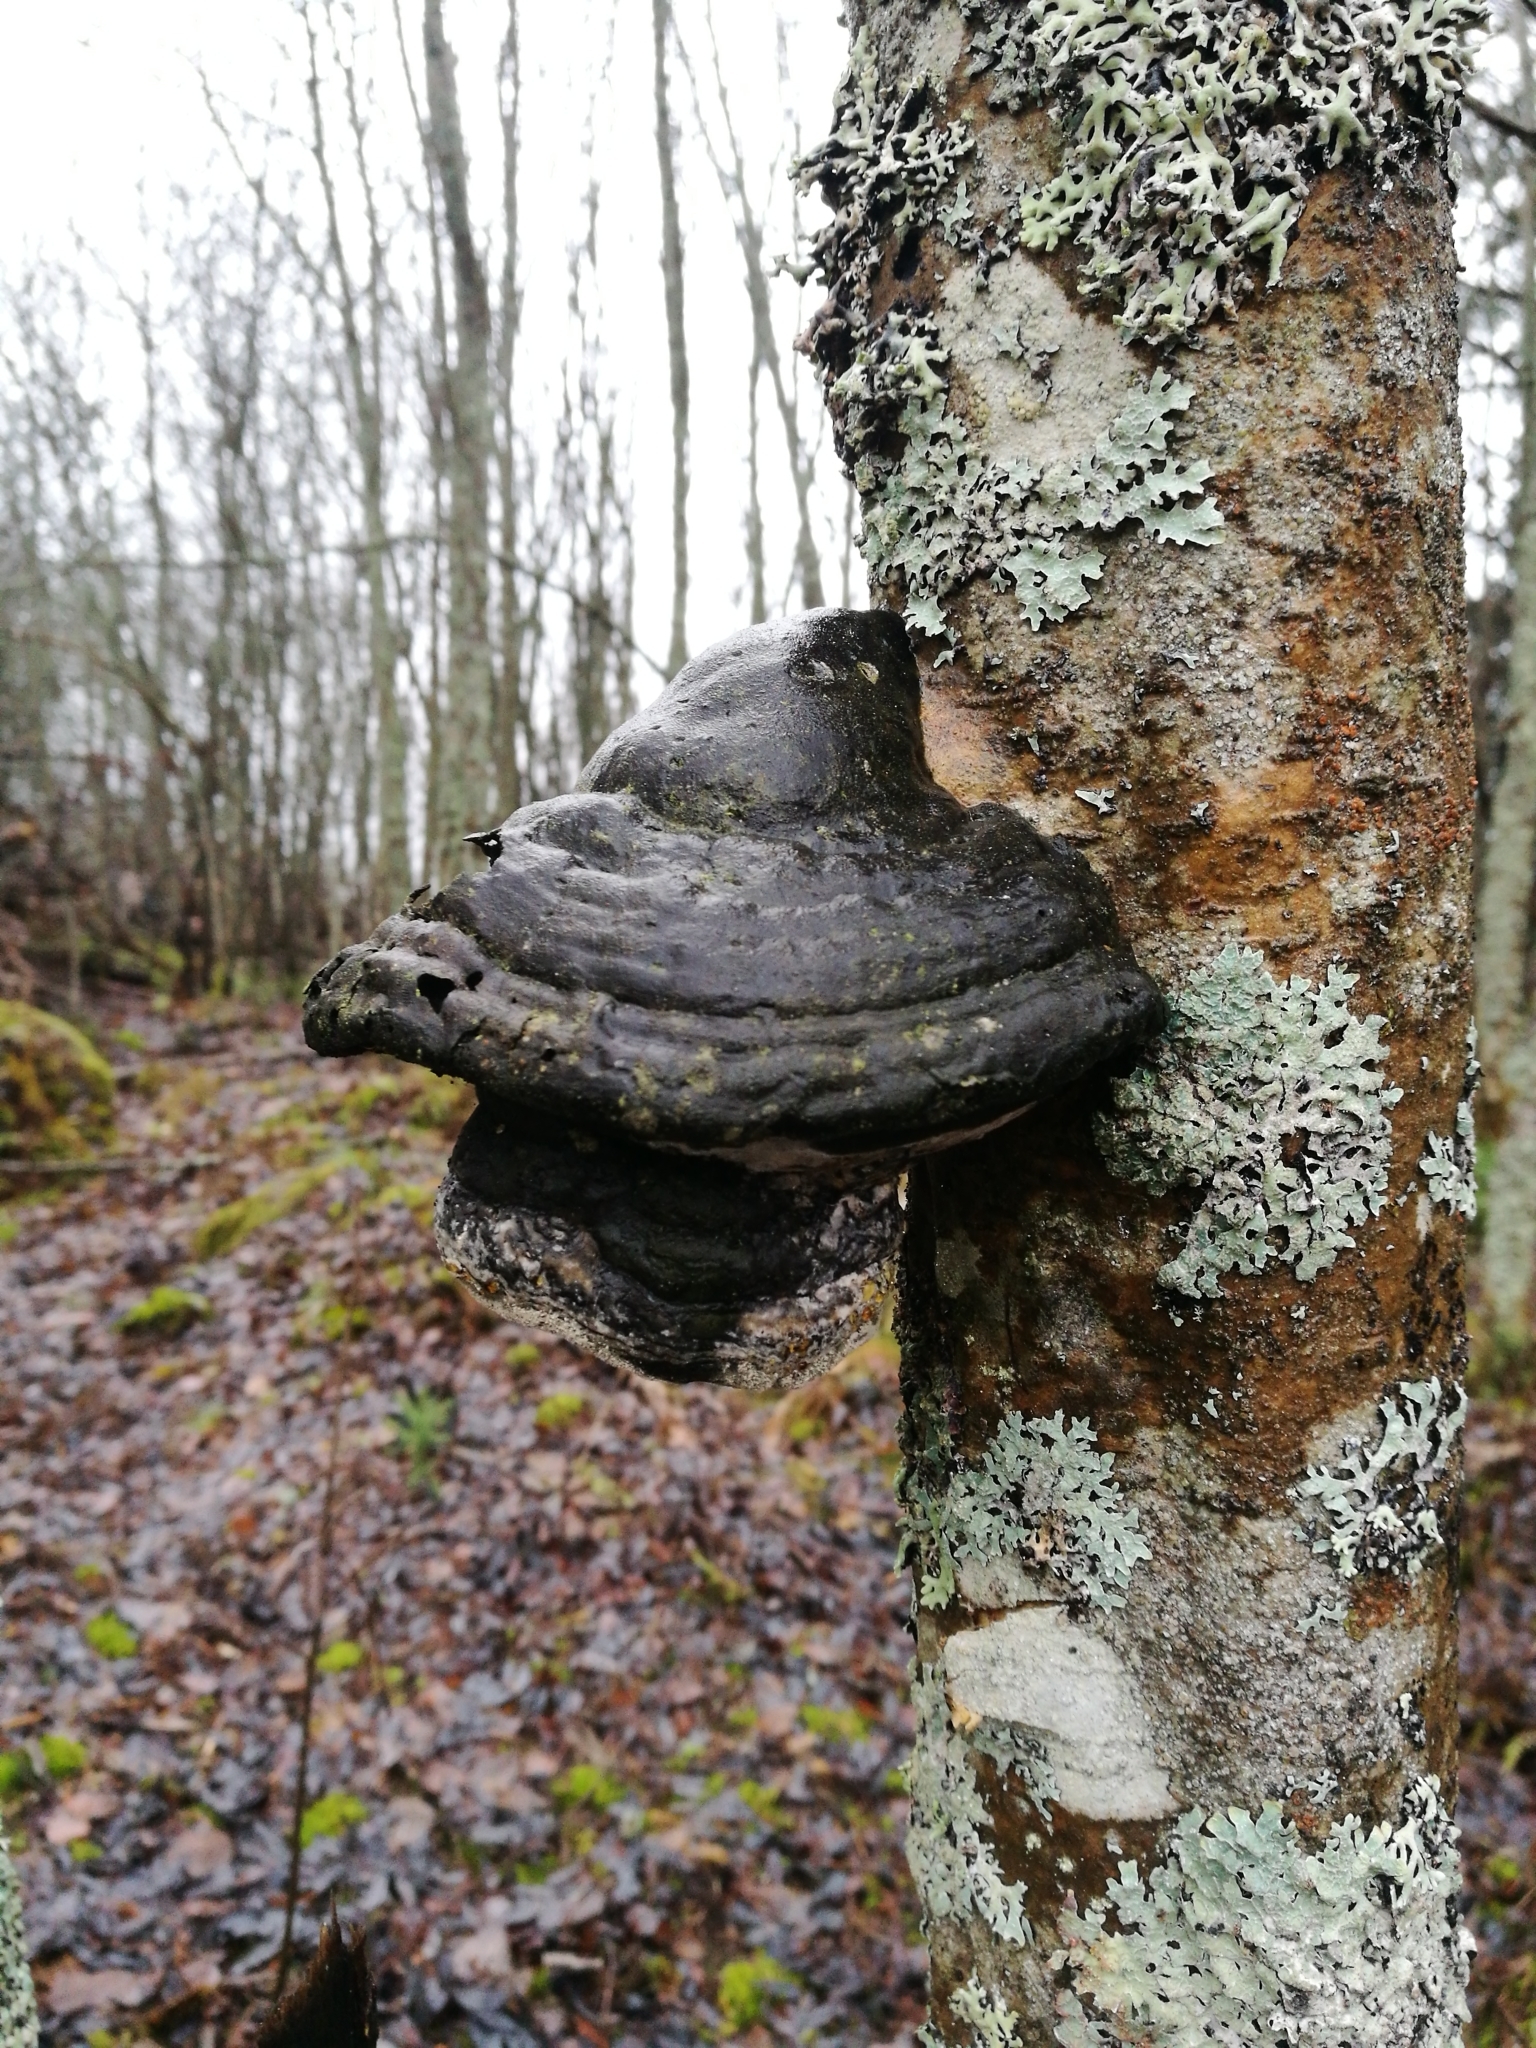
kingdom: Fungi
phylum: Basidiomycota
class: Agaricomycetes
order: Polyporales
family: Polyporaceae
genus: Fomes
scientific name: Fomes fomentarius
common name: Hoof fungus
